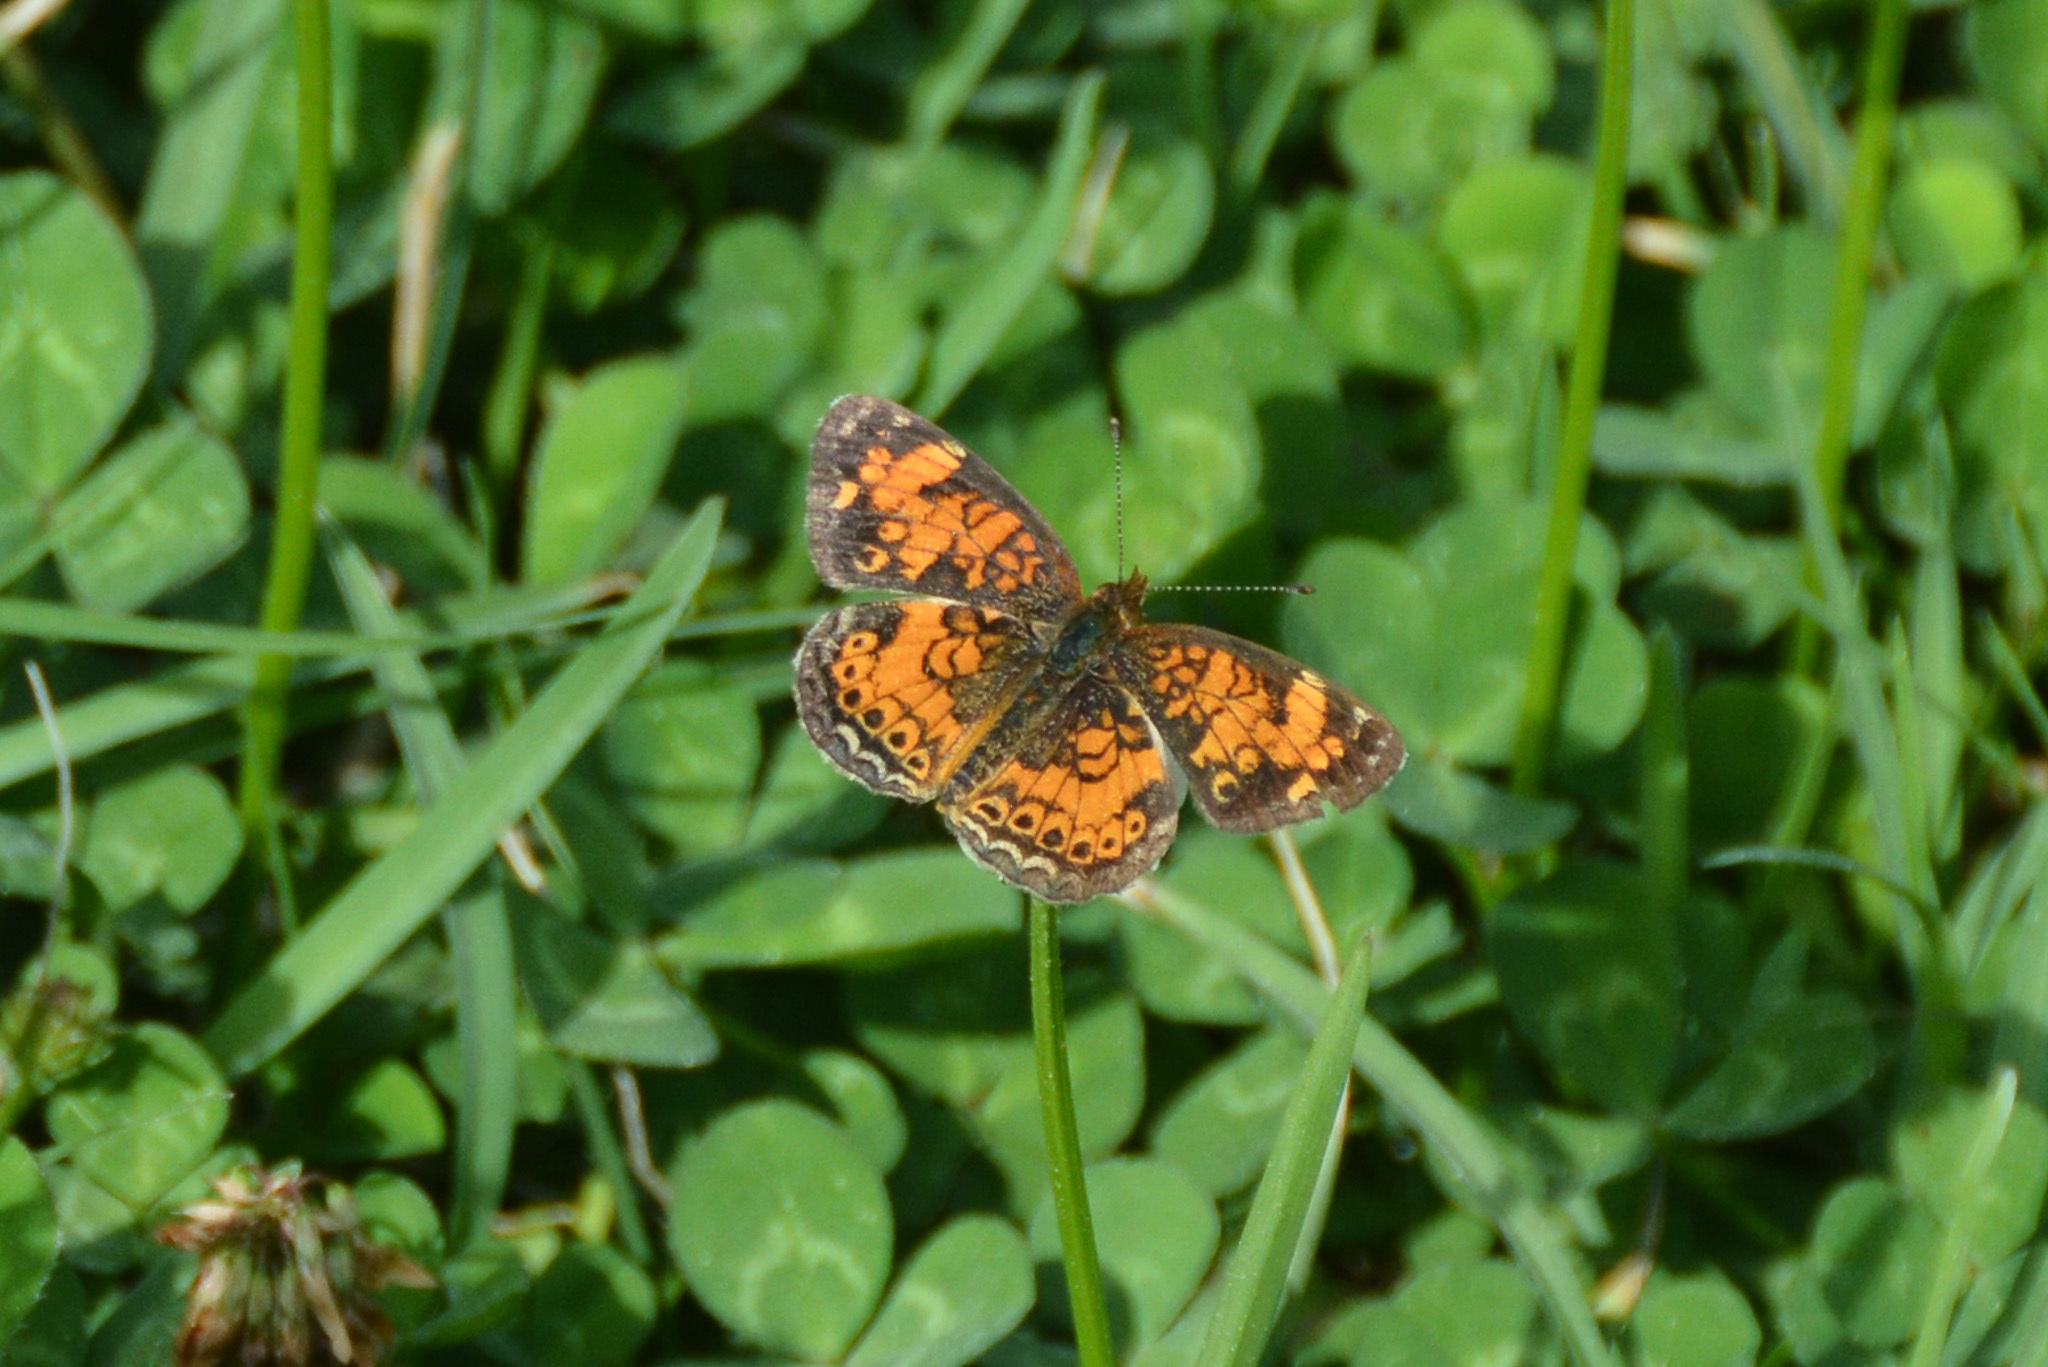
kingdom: Animalia
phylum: Arthropoda
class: Insecta
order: Lepidoptera
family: Nymphalidae
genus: Phyciodes
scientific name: Phyciodes tharos
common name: Pearl crescent
